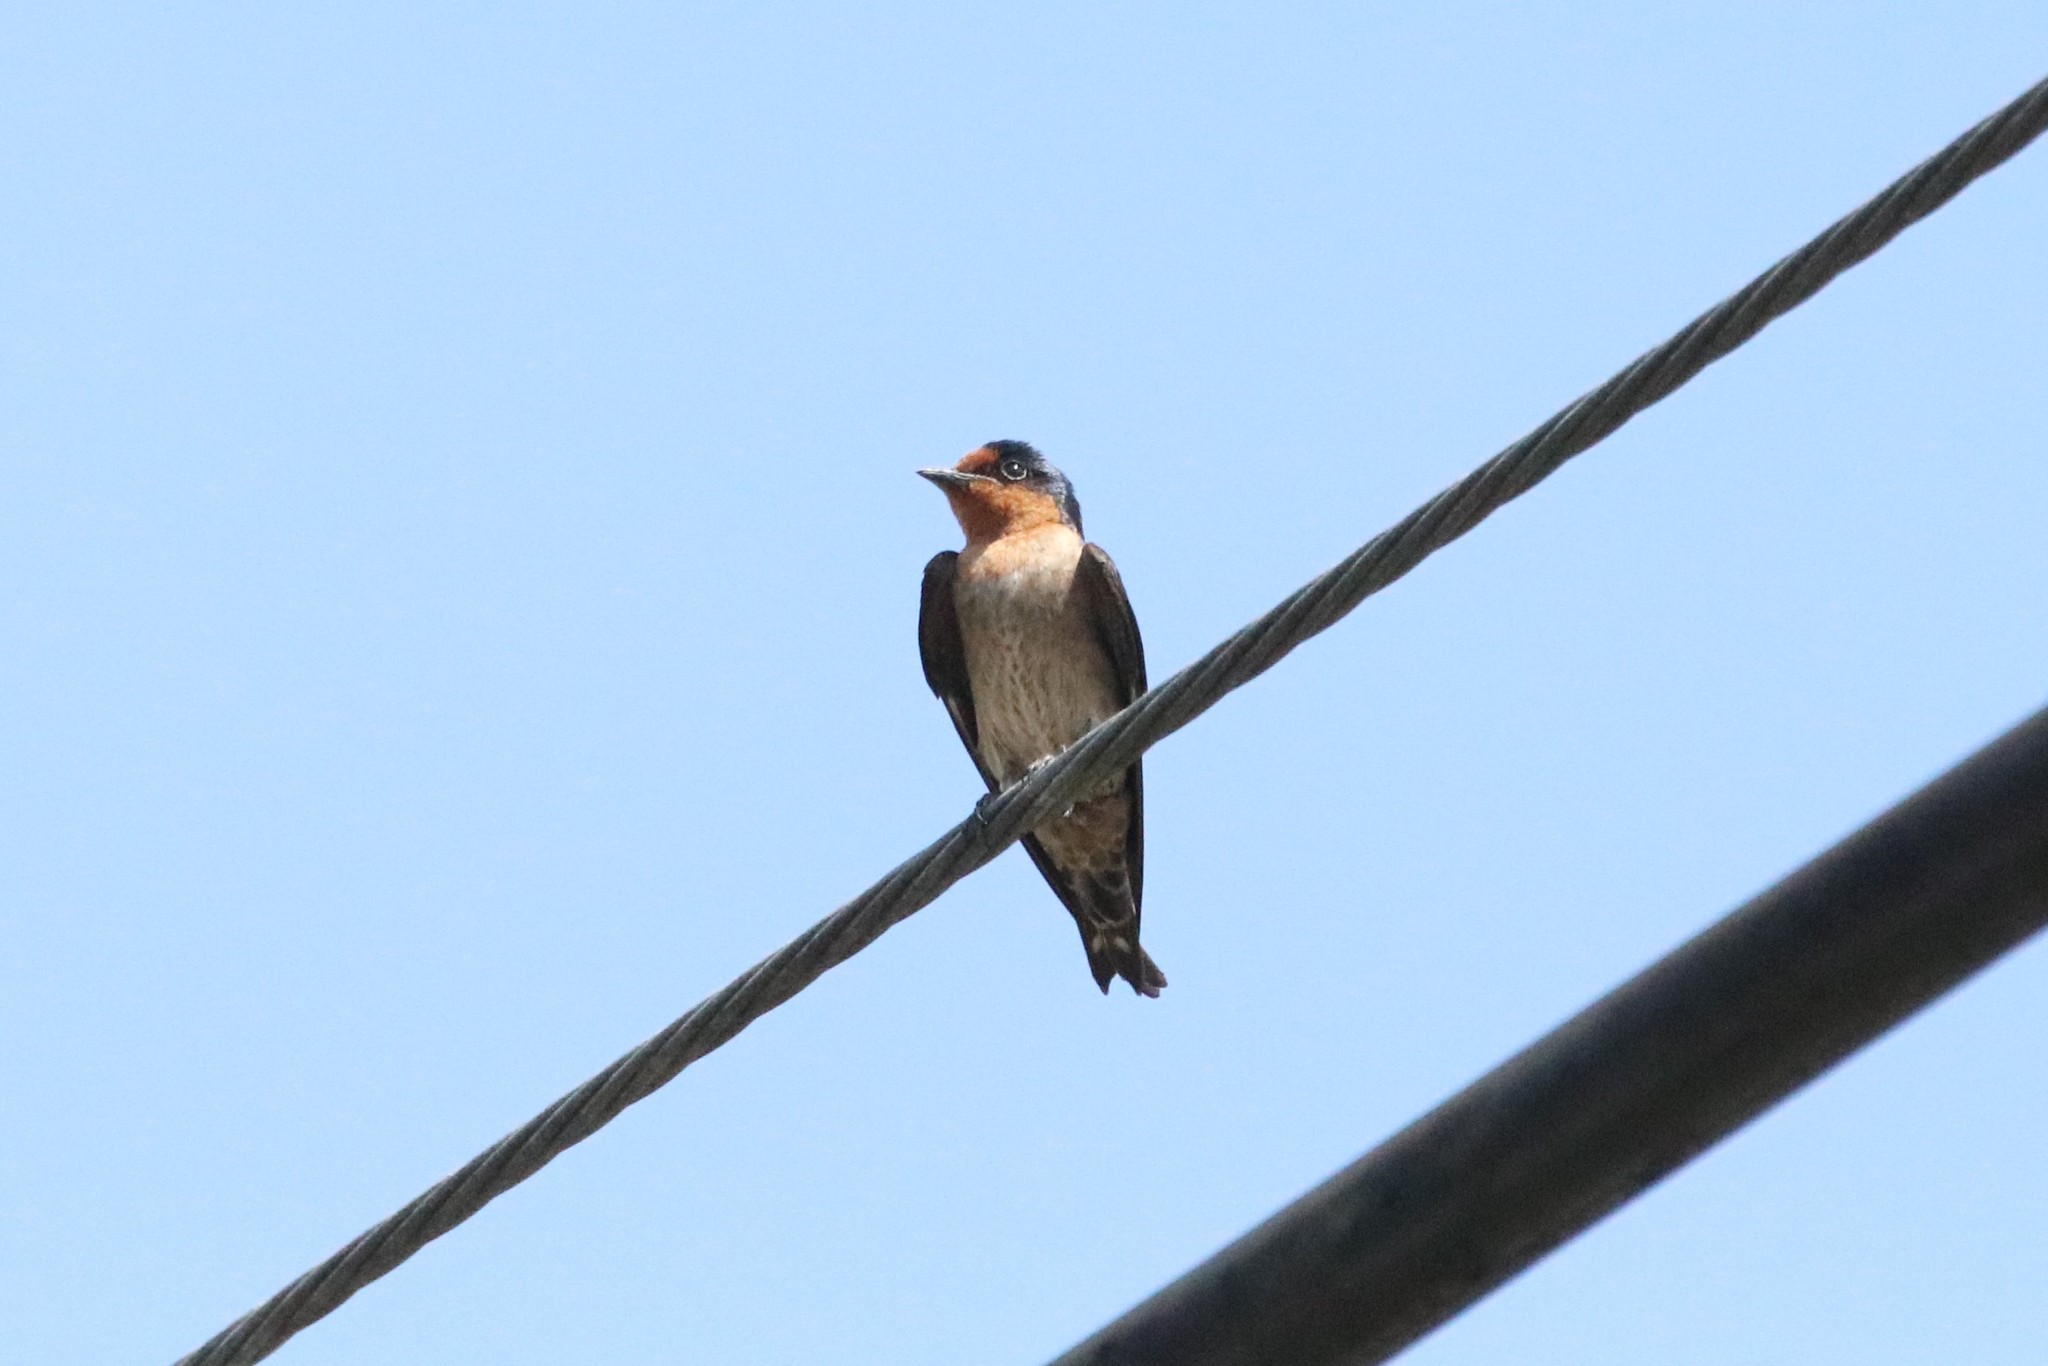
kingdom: Animalia
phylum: Chordata
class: Aves
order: Passeriformes
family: Hirundinidae
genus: Hirundo
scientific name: Hirundo tahitica
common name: Pacific swallow
